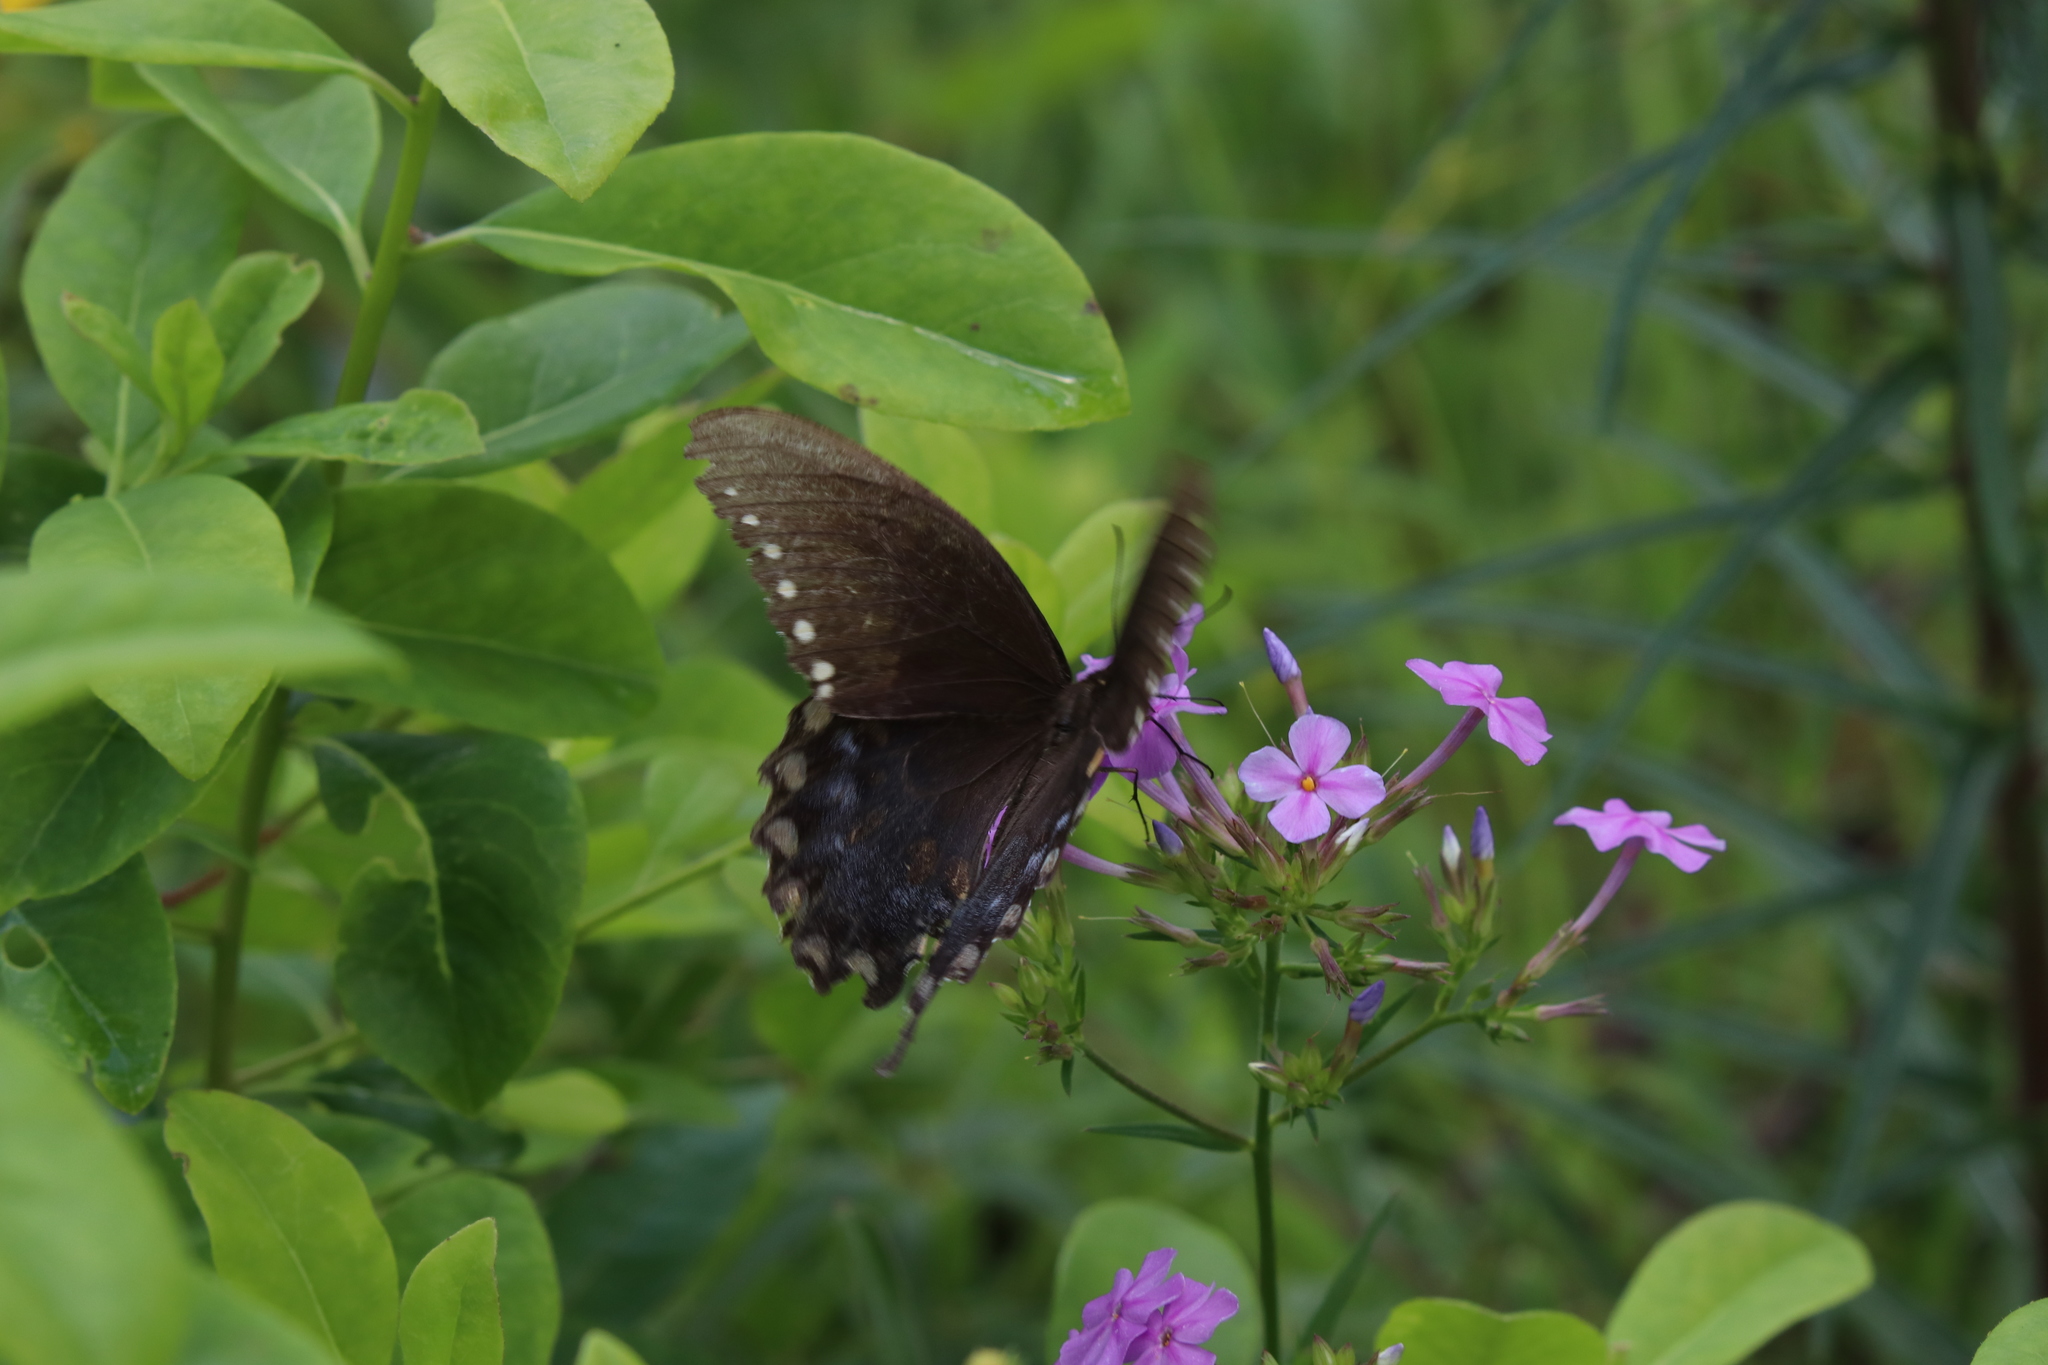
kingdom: Animalia
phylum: Arthropoda
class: Insecta
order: Lepidoptera
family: Papilionidae
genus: Papilio
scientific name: Papilio troilus
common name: Spicebush swallowtail
